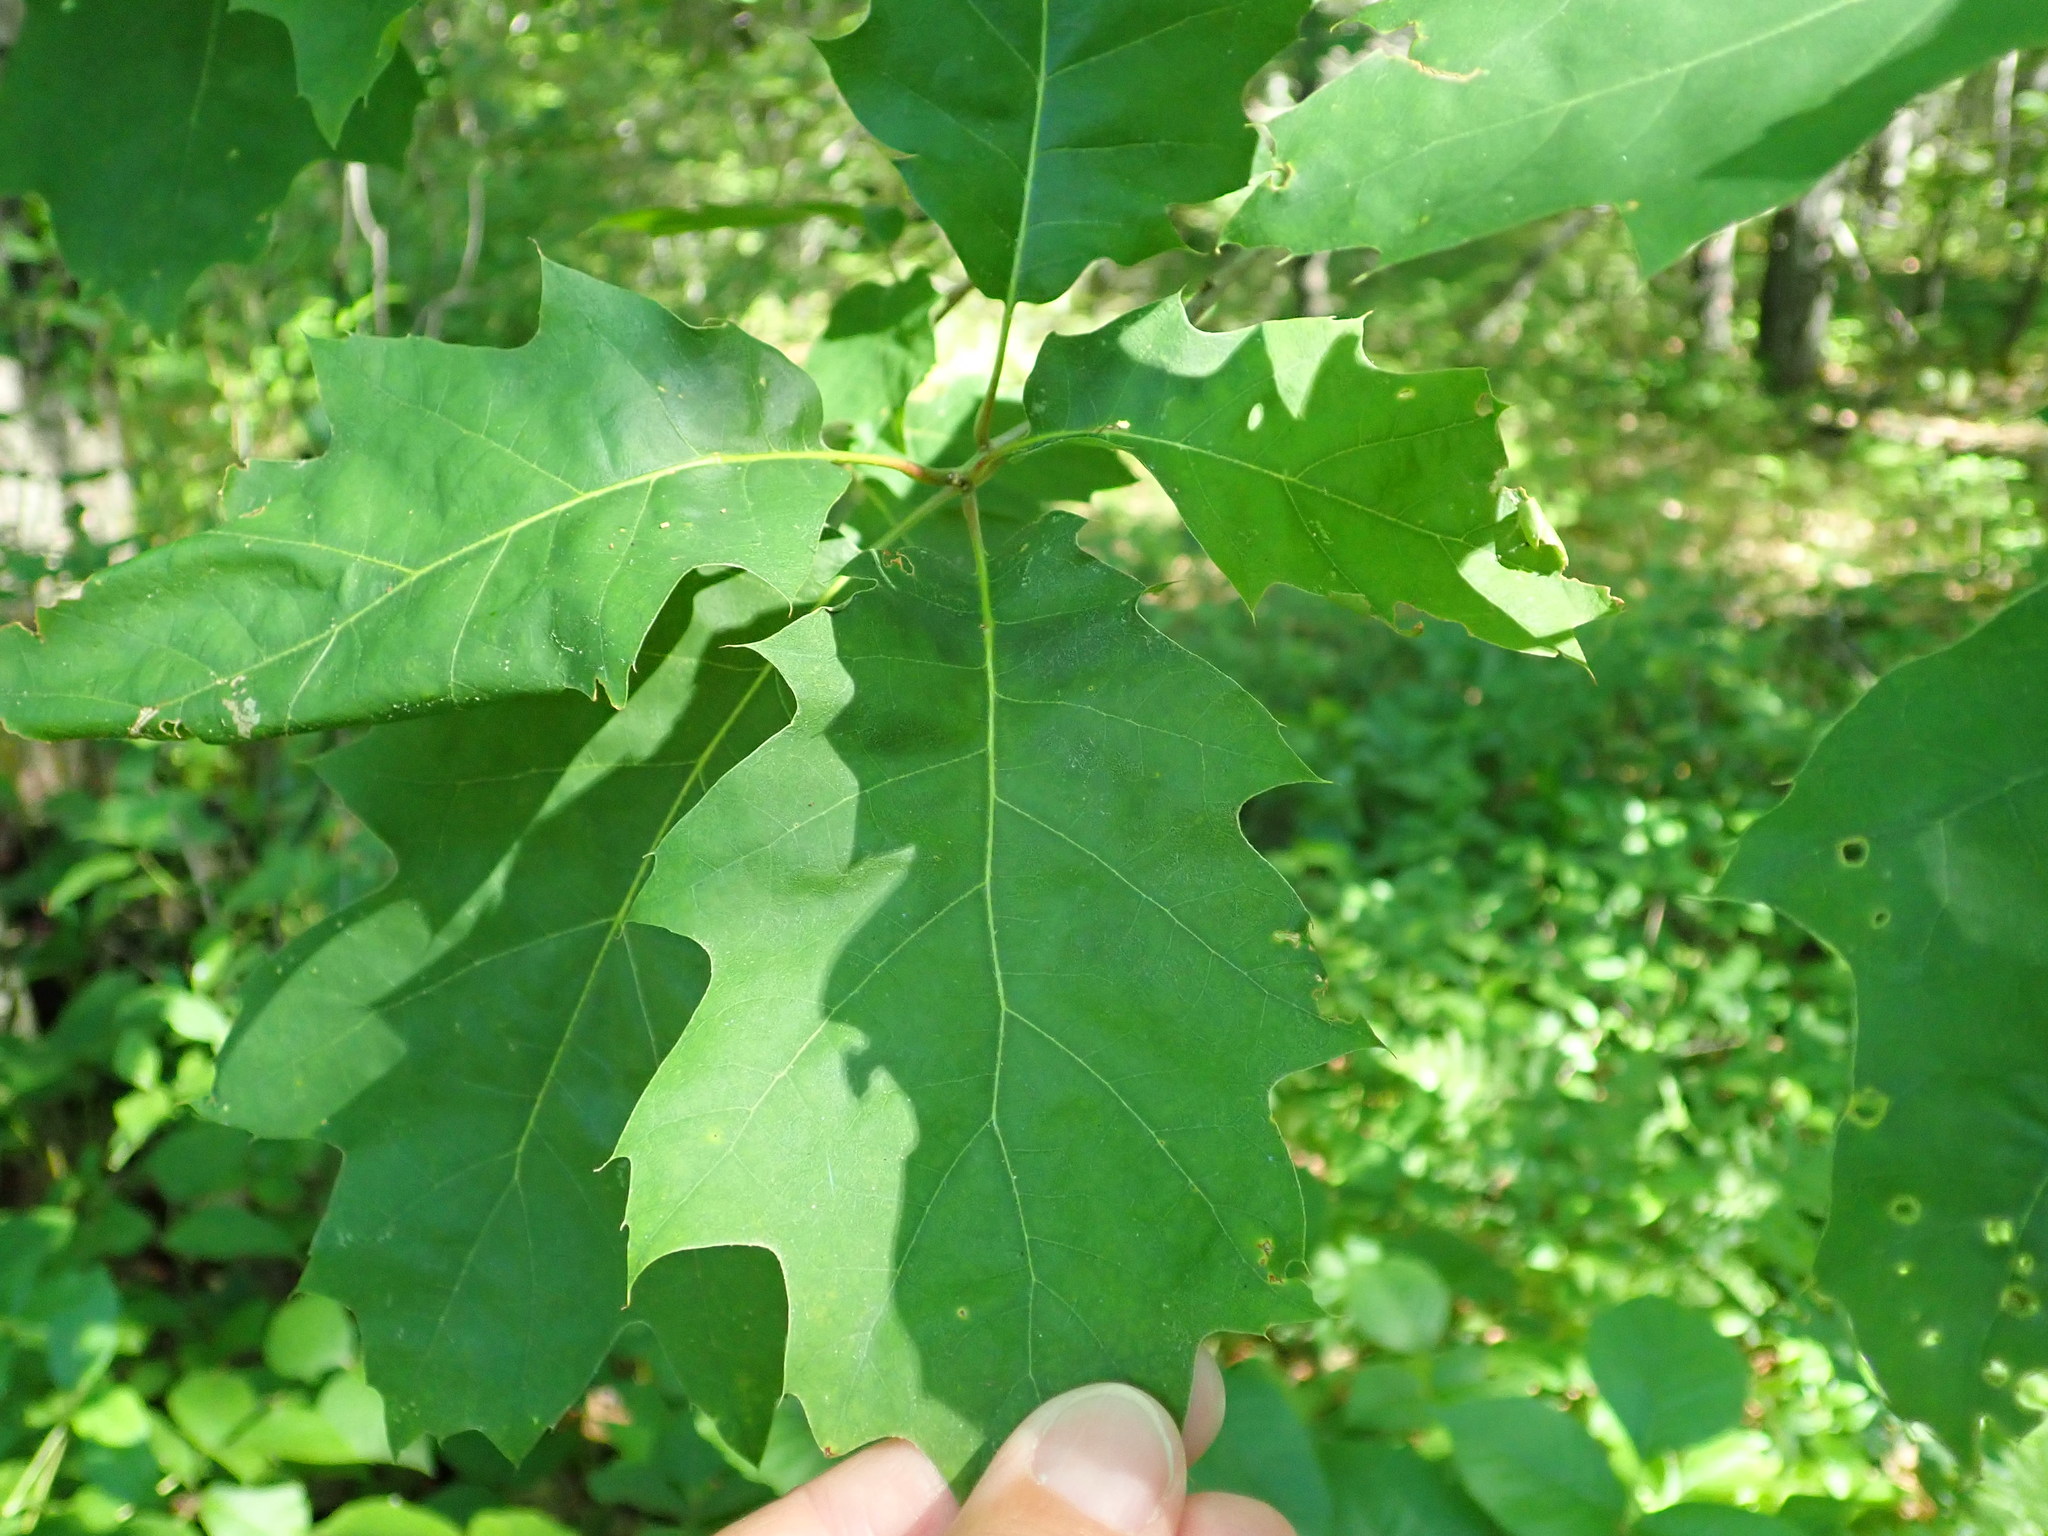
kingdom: Plantae
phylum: Tracheophyta
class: Magnoliopsida
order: Fagales
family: Fagaceae
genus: Quercus
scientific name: Quercus rubra
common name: Red oak
